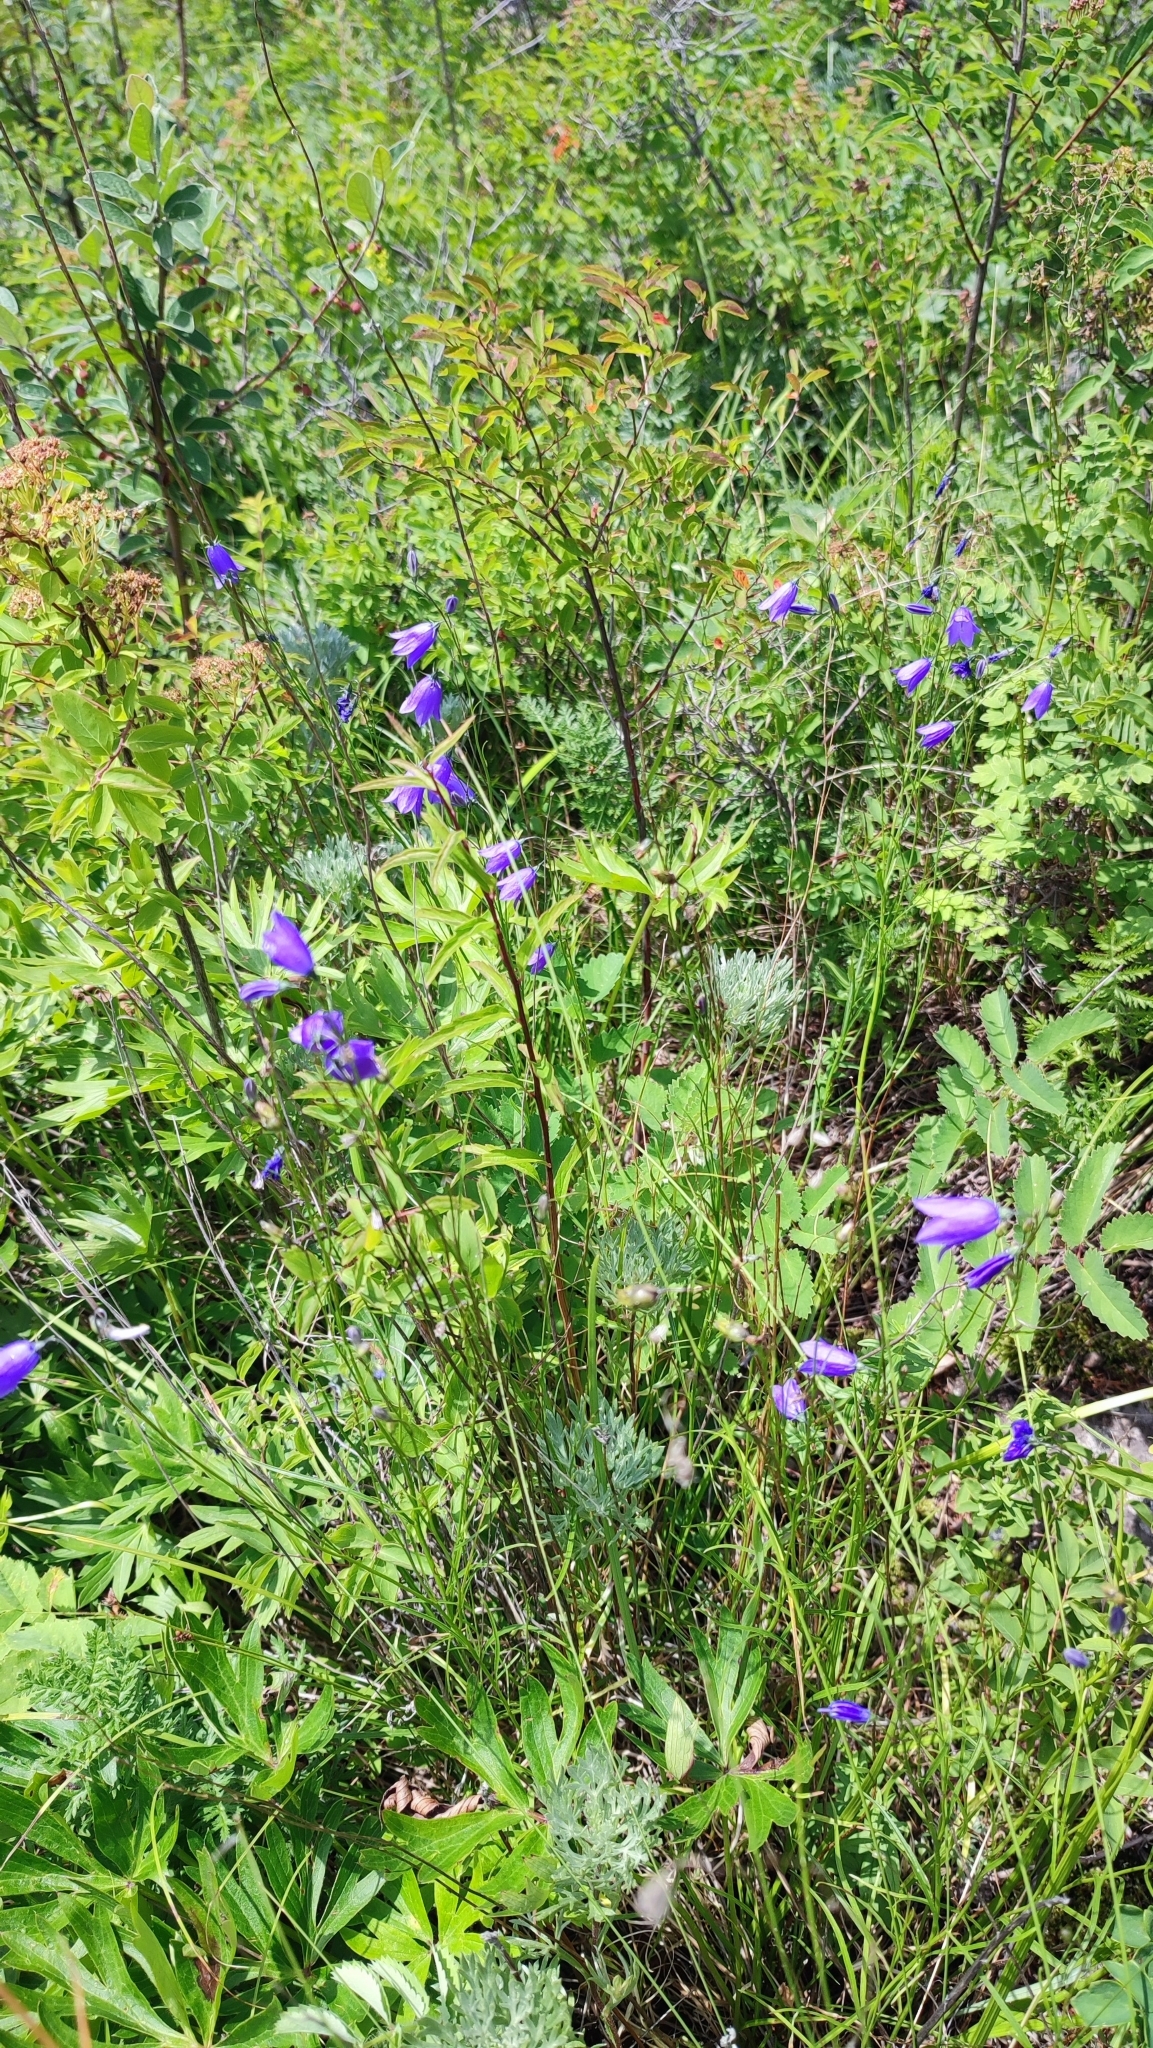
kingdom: Plantae
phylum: Tracheophyta
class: Magnoliopsida
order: Asterales
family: Campanulaceae
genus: Campanula
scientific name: Campanula rotundifolia
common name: Harebell
